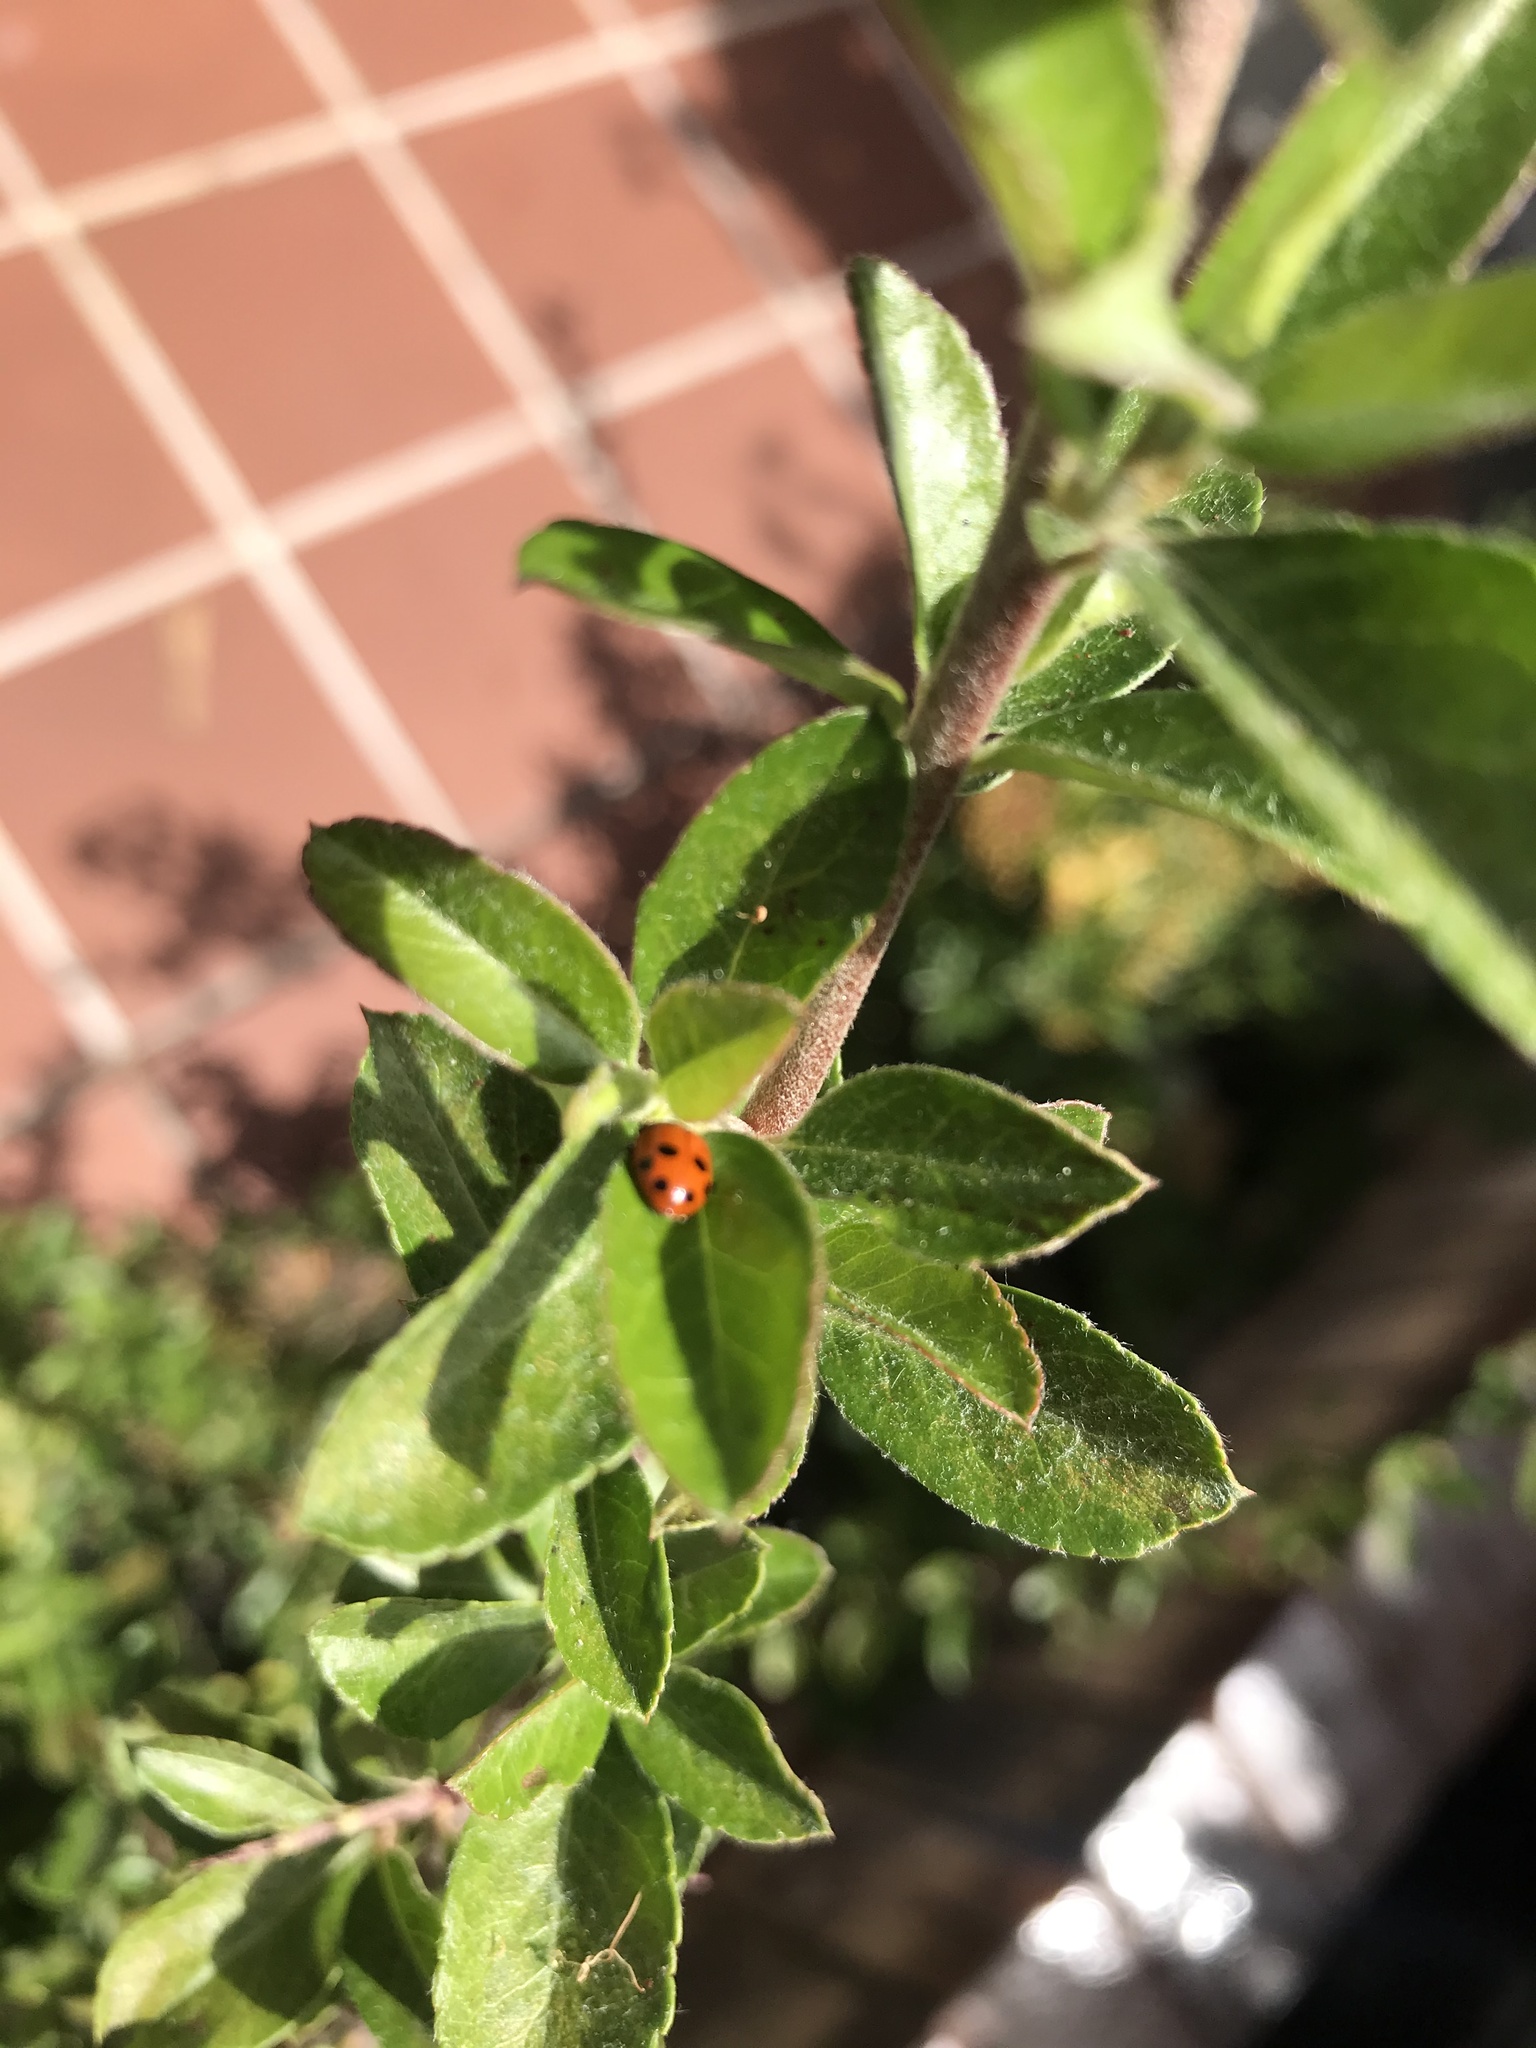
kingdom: Animalia
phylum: Arthropoda
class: Insecta
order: Coleoptera
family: Coccinellidae
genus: Hippodamia
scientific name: Hippodamia variegata
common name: Ladybird beetle
